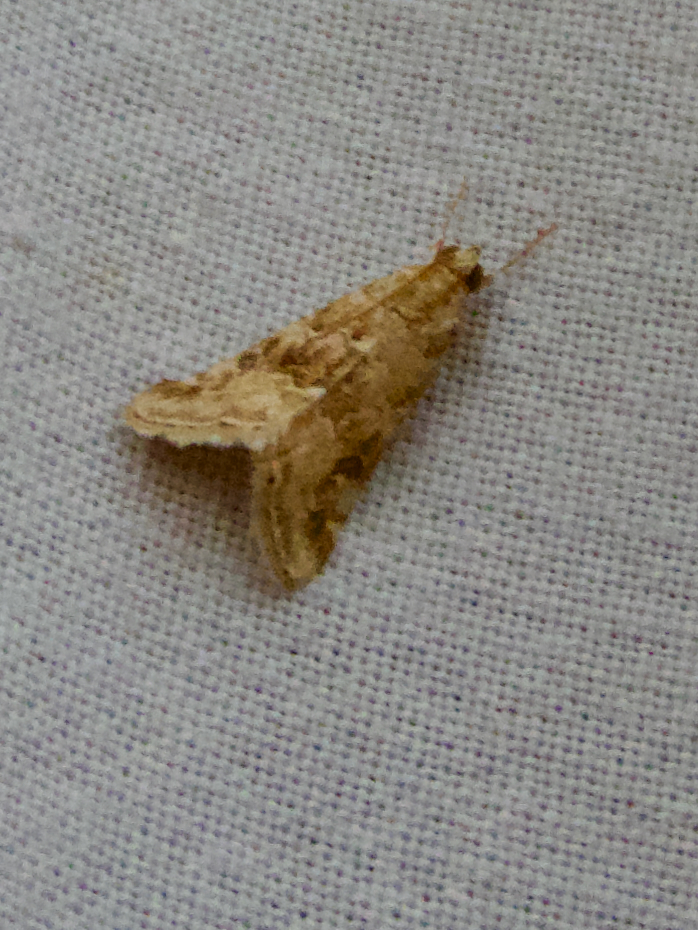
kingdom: Animalia
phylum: Arthropoda
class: Insecta
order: Lepidoptera
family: Crambidae
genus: Hellula
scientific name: Hellula undalis
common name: Cabbage webworm
